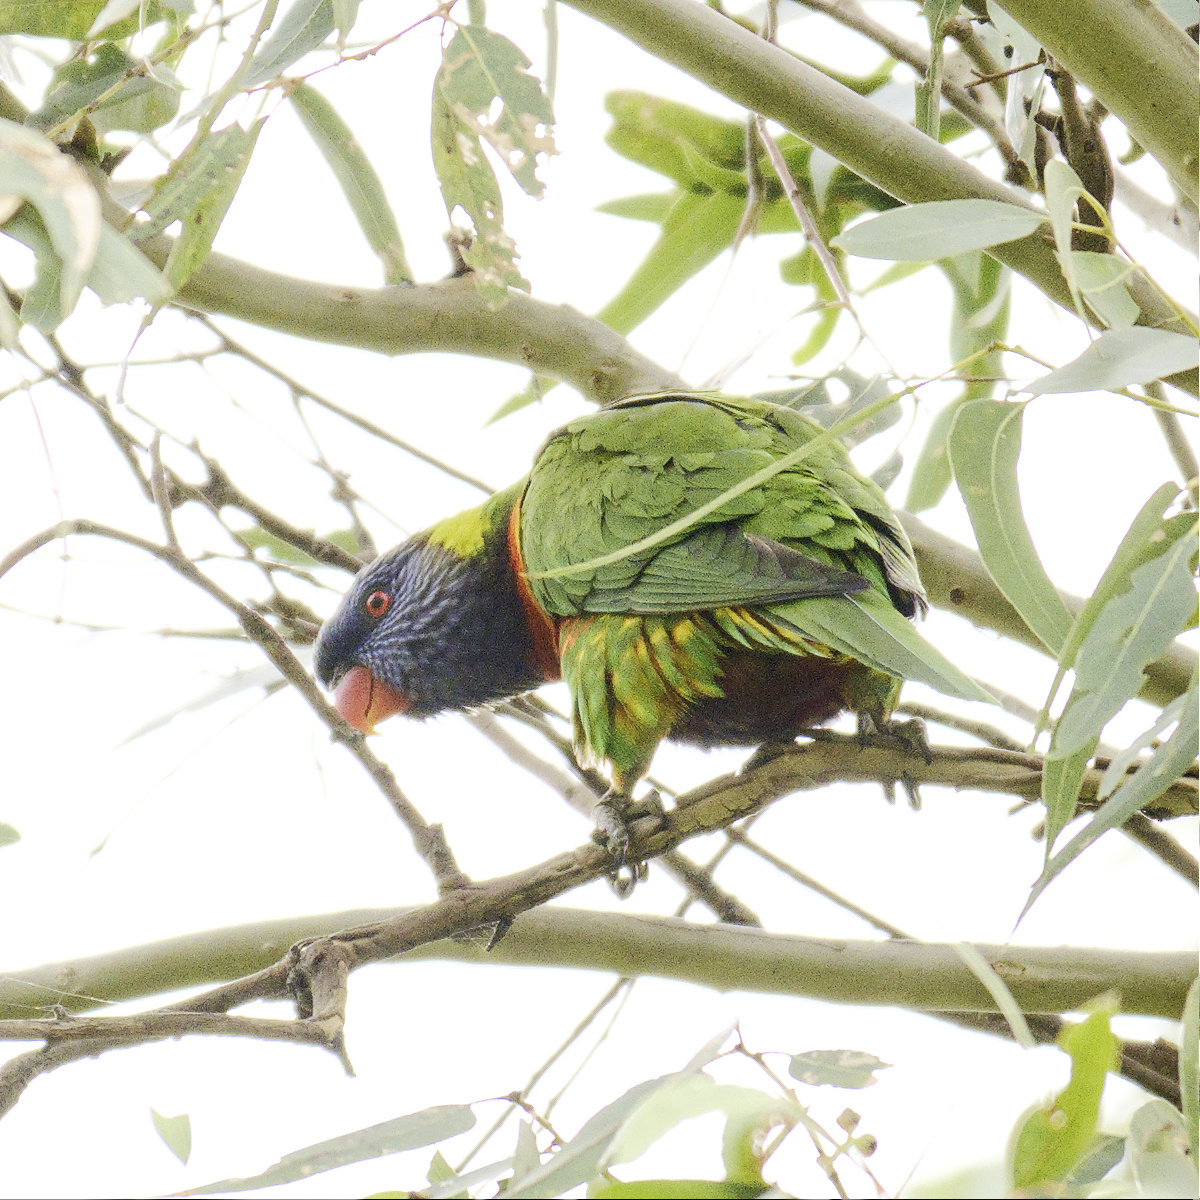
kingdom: Animalia
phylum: Chordata
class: Aves
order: Psittaciformes
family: Psittacidae
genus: Trichoglossus
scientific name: Trichoglossus haematodus
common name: Coconut lorikeet
